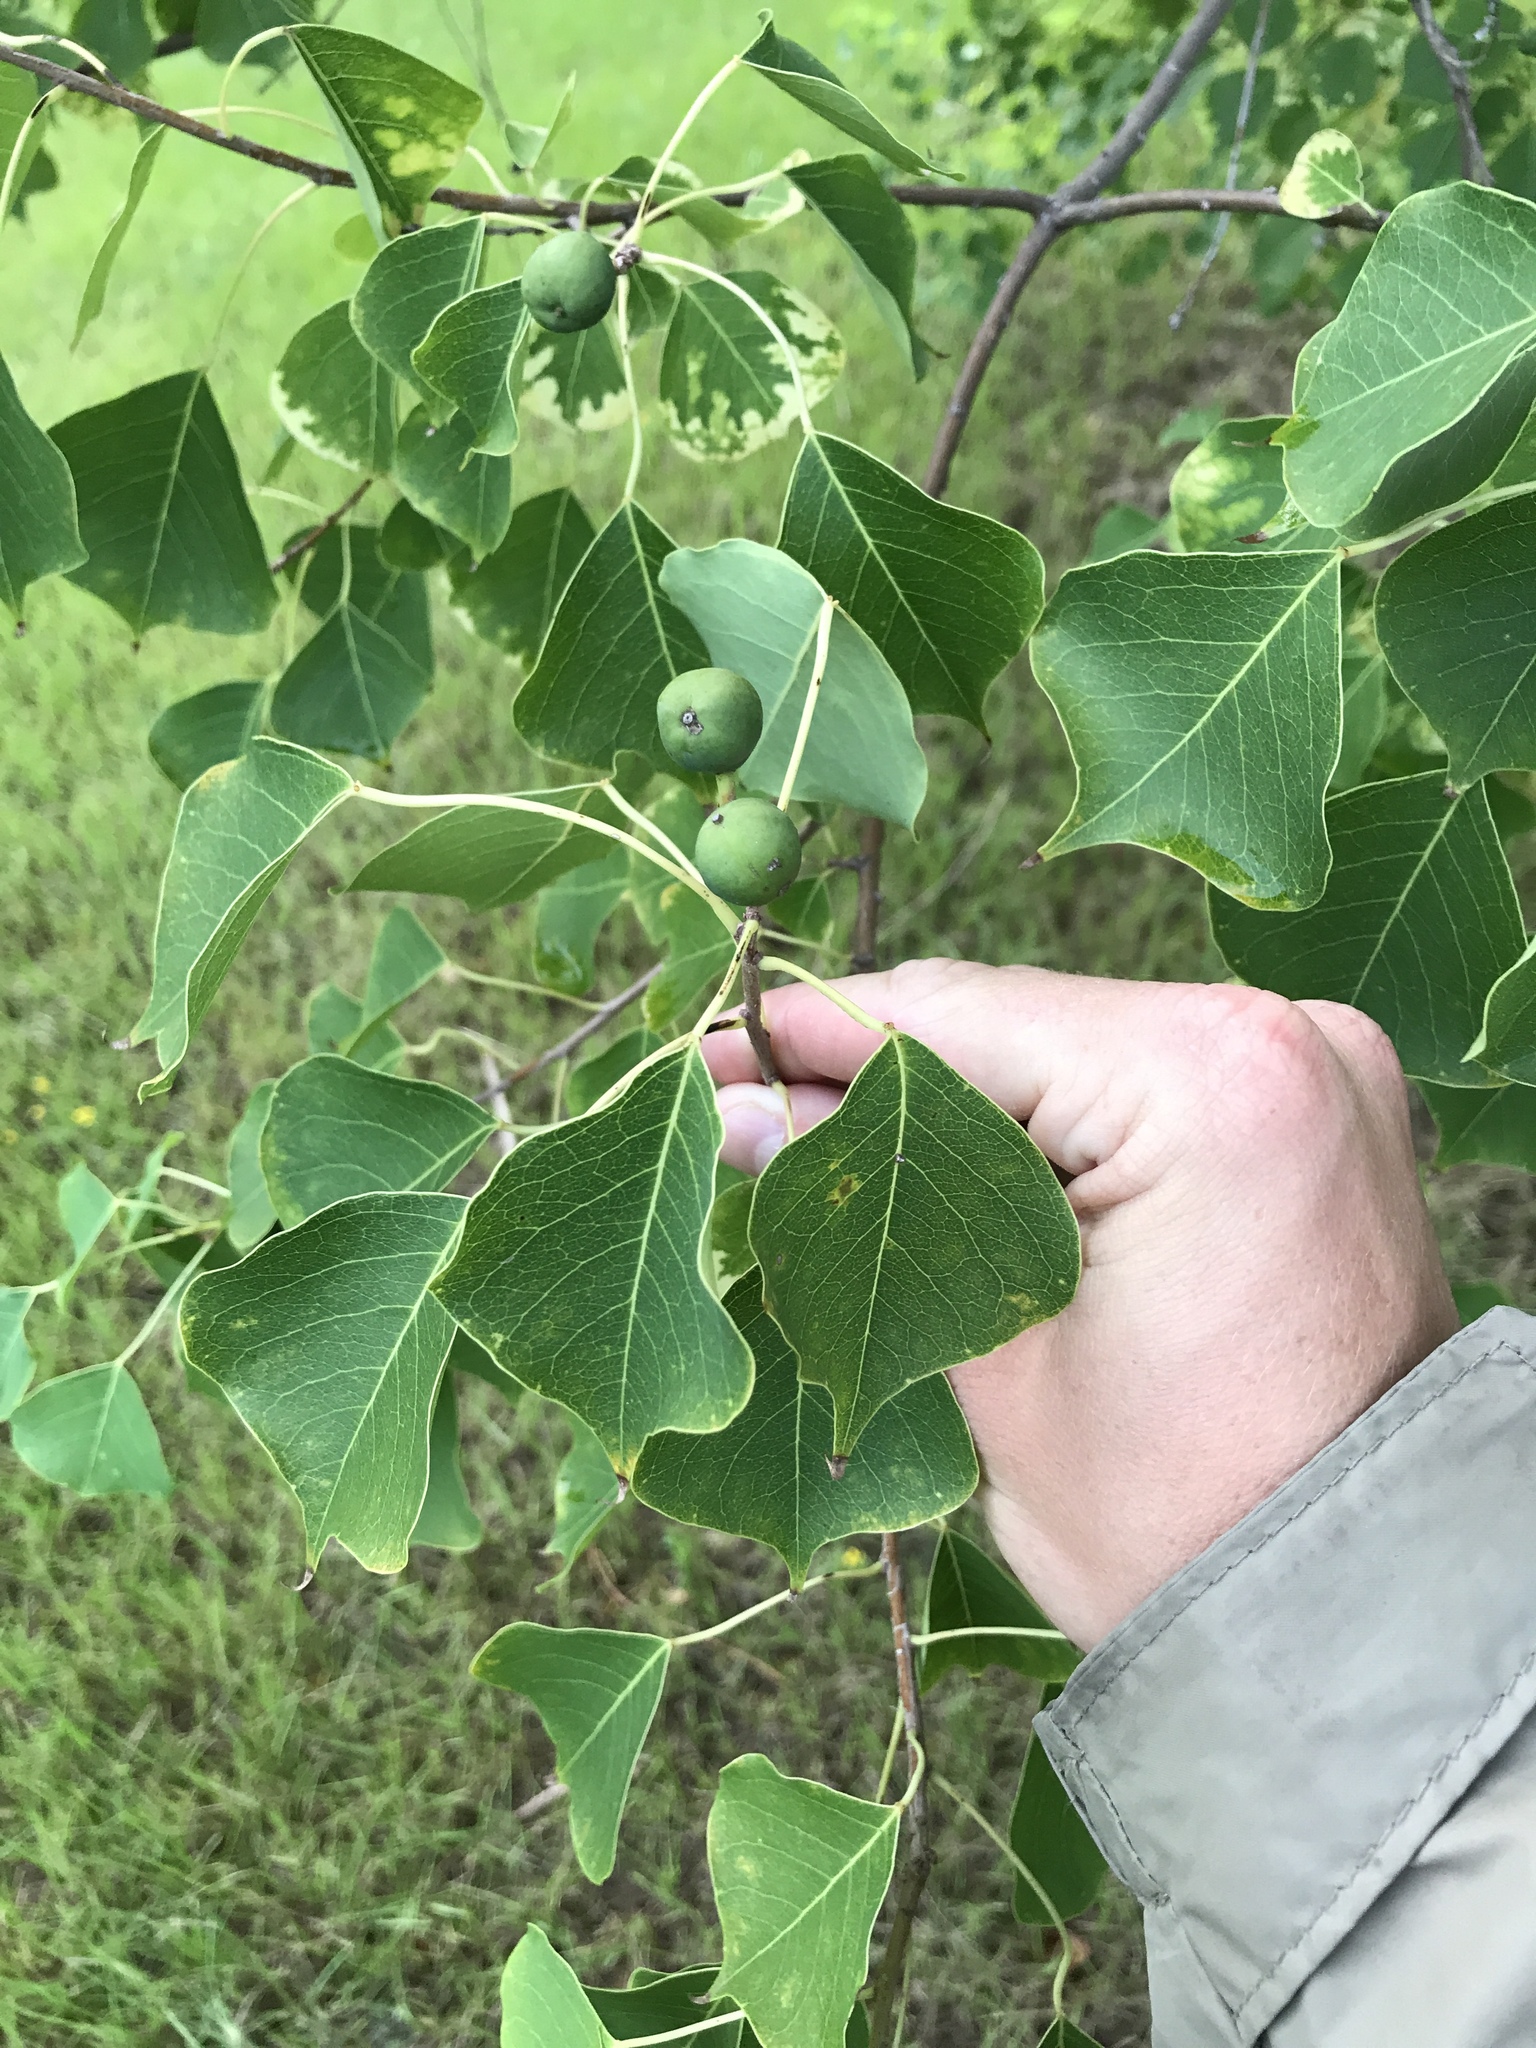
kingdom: Plantae
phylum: Tracheophyta
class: Magnoliopsida
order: Malpighiales
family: Euphorbiaceae
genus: Triadica
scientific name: Triadica sebifera
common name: Chinese tallow
